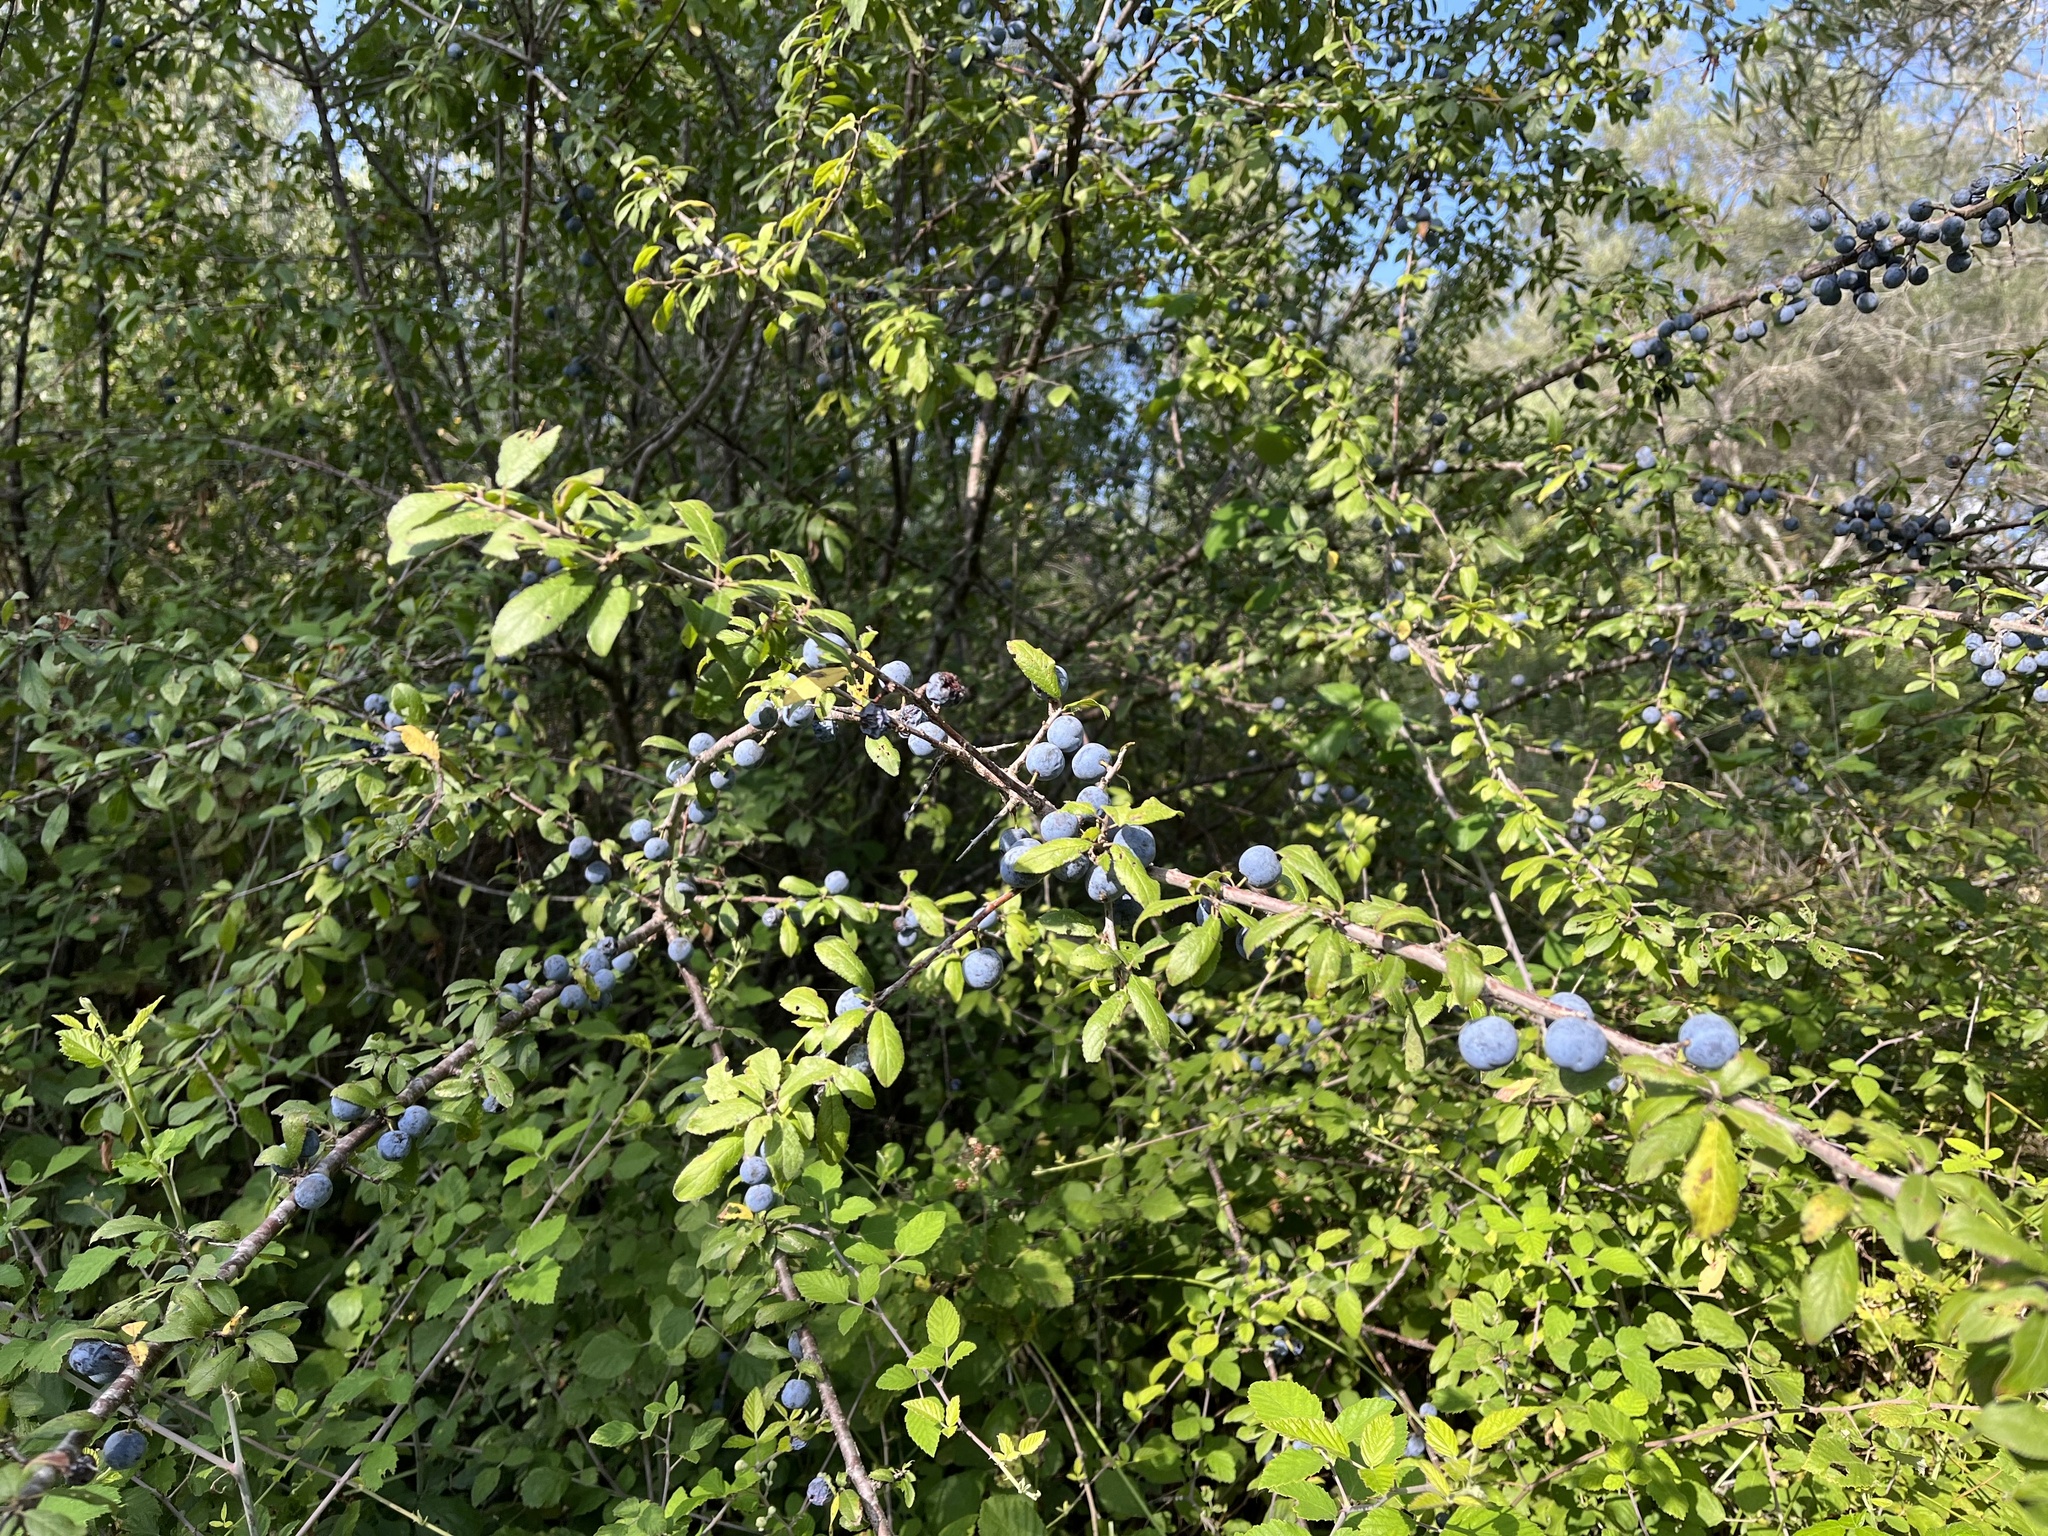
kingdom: Plantae
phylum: Tracheophyta
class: Magnoliopsida
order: Rosales
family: Rosaceae
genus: Prunus
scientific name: Prunus spinosa
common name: Blackthorn
